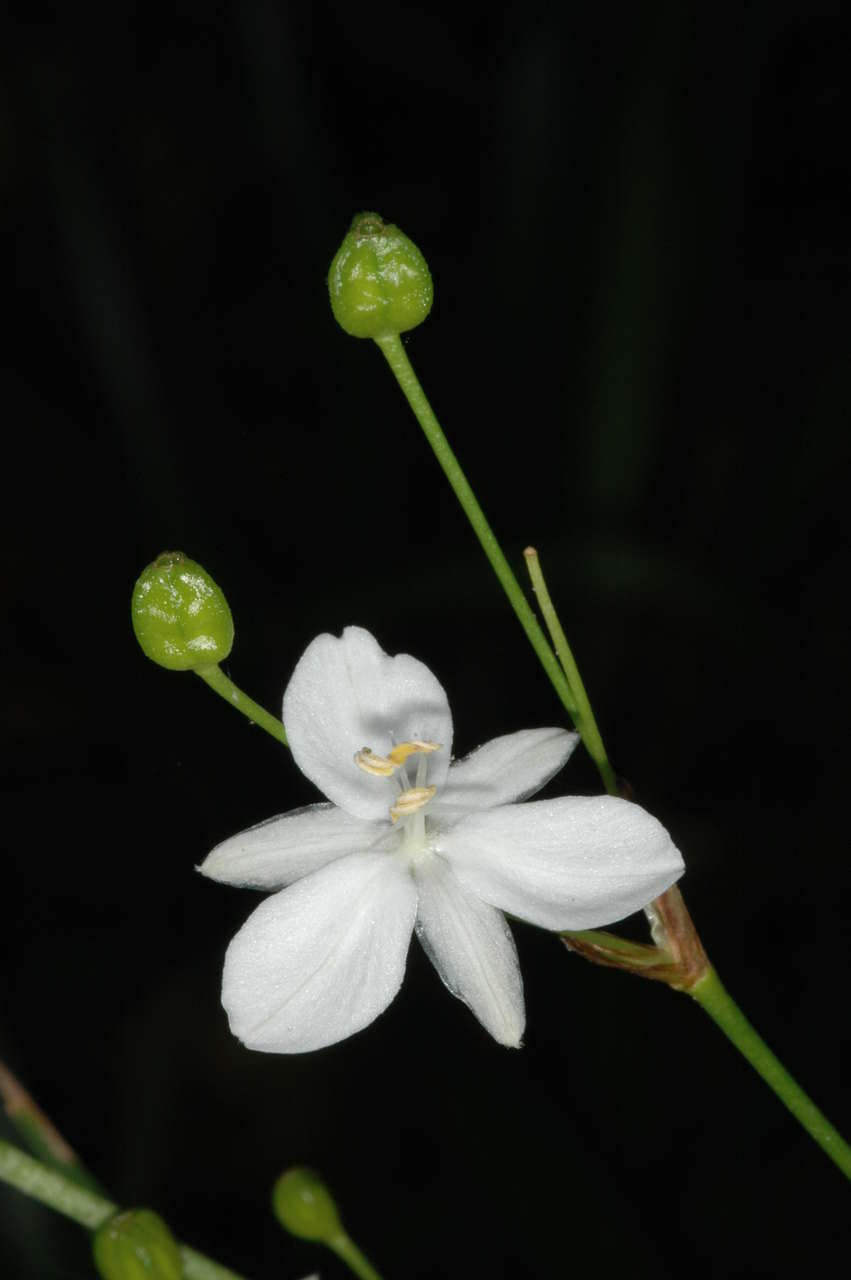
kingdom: Plantae
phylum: Tracheophyta
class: Liliopsida
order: Asparagales
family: Iridaceae
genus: Libertia
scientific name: Libertia paniculata
